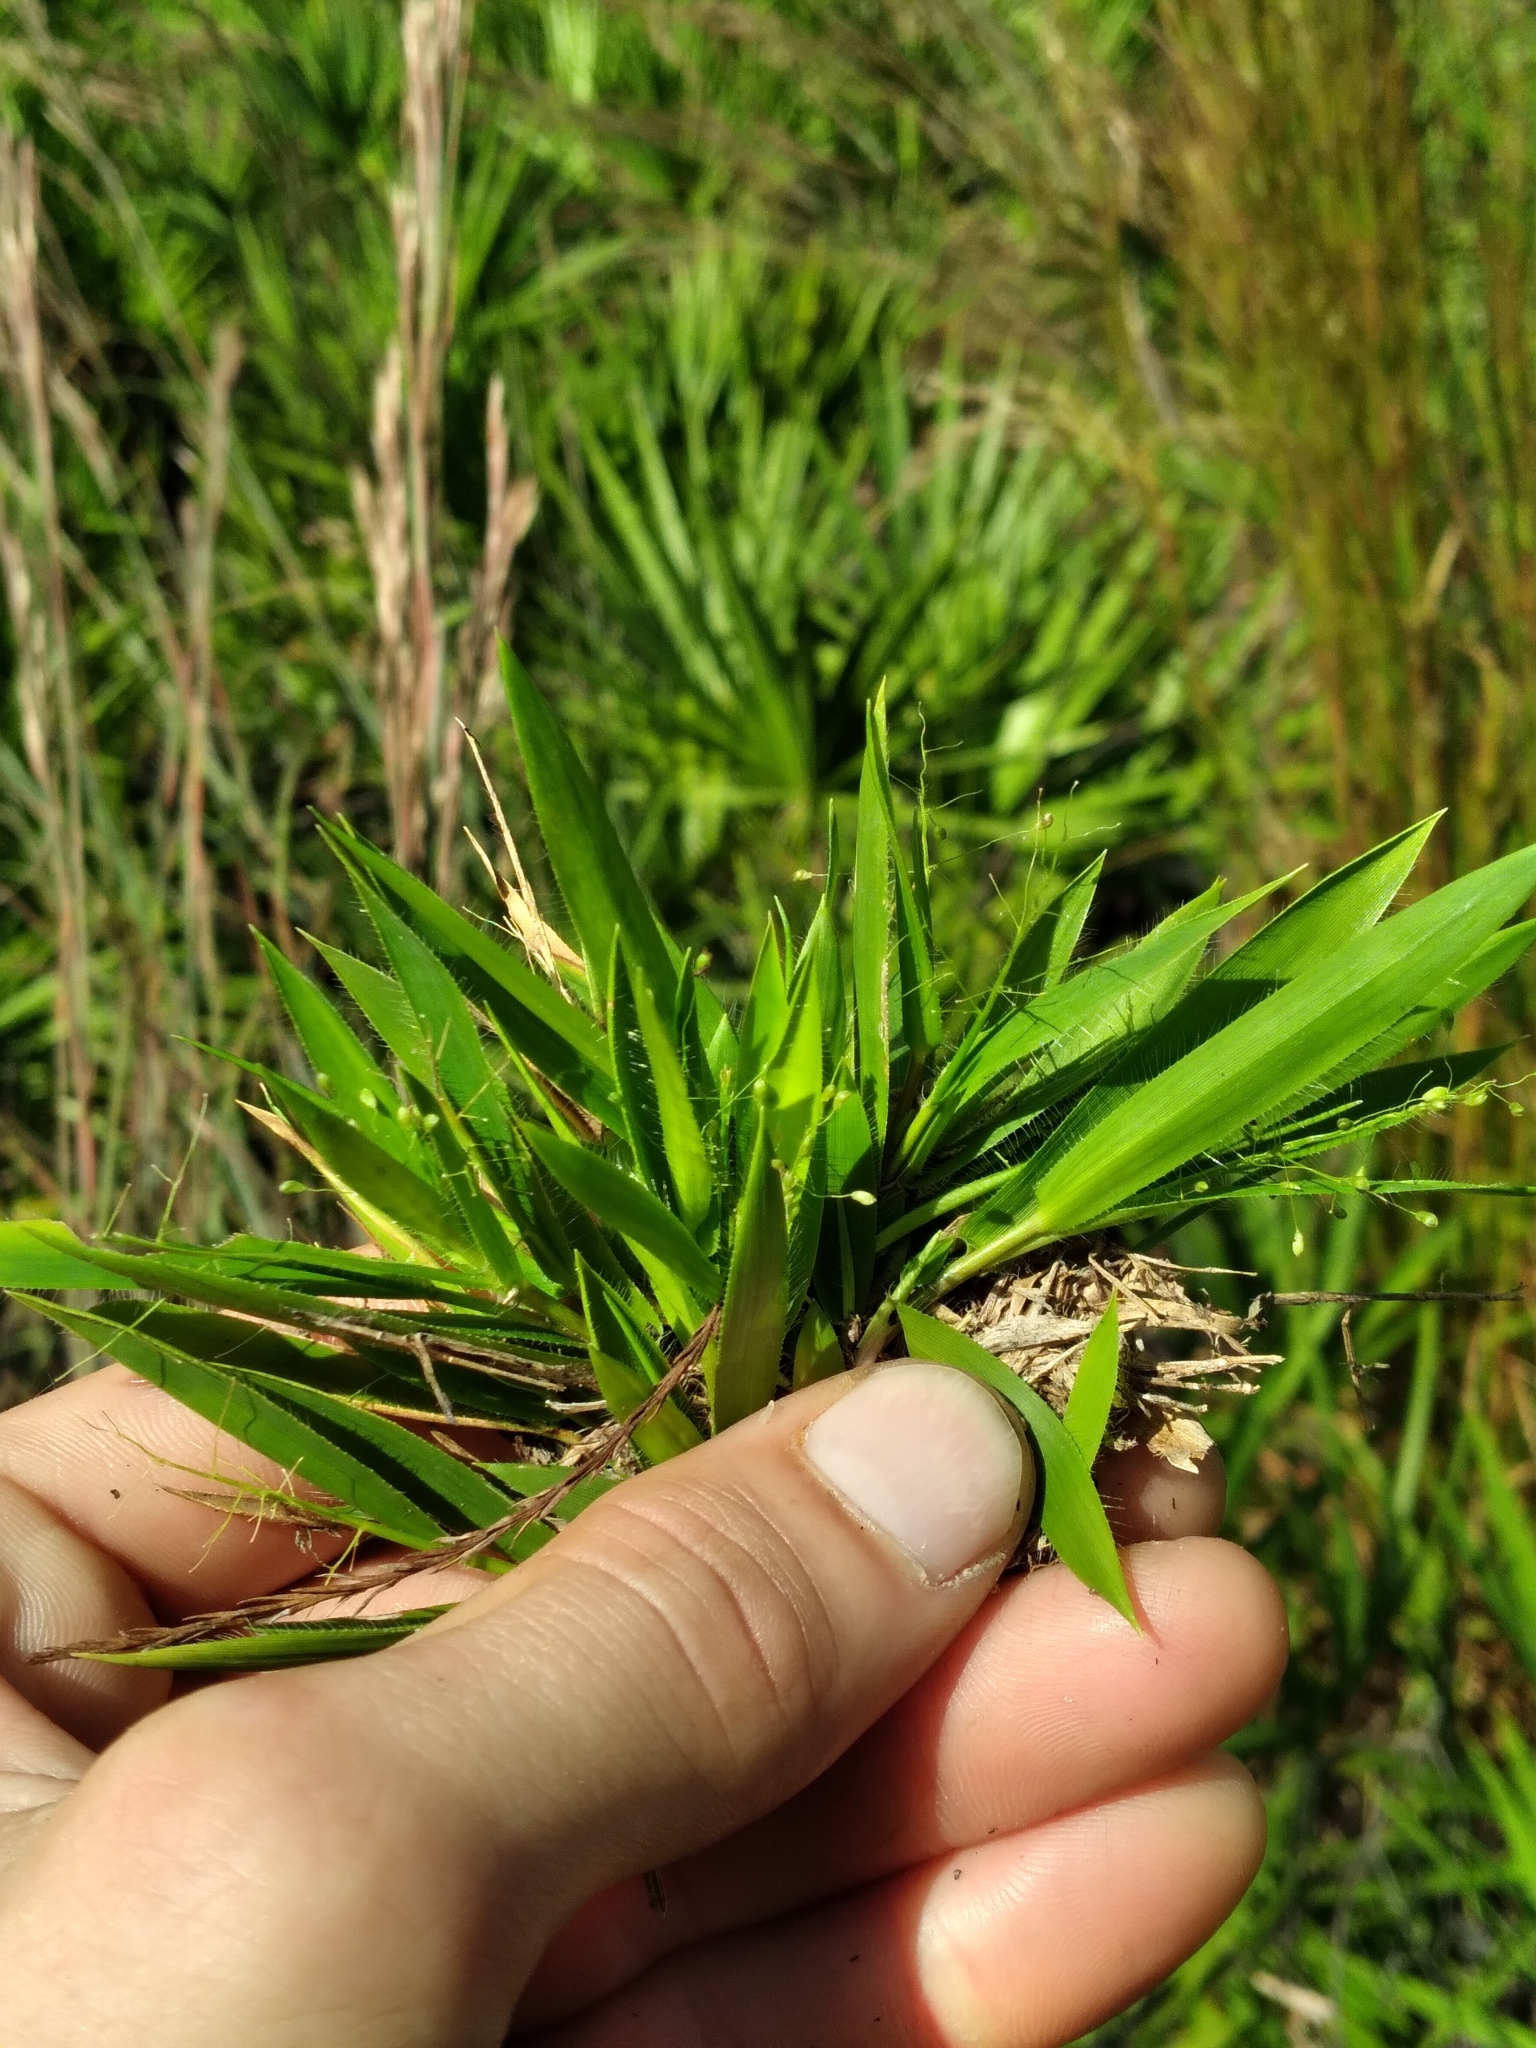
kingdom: Plantae
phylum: Tracheophyta
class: Liliopsida
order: Poales
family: Poaceae
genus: Dichanthelium
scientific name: Dichanthelium strigosum
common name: Cushion-tuft panic grass
